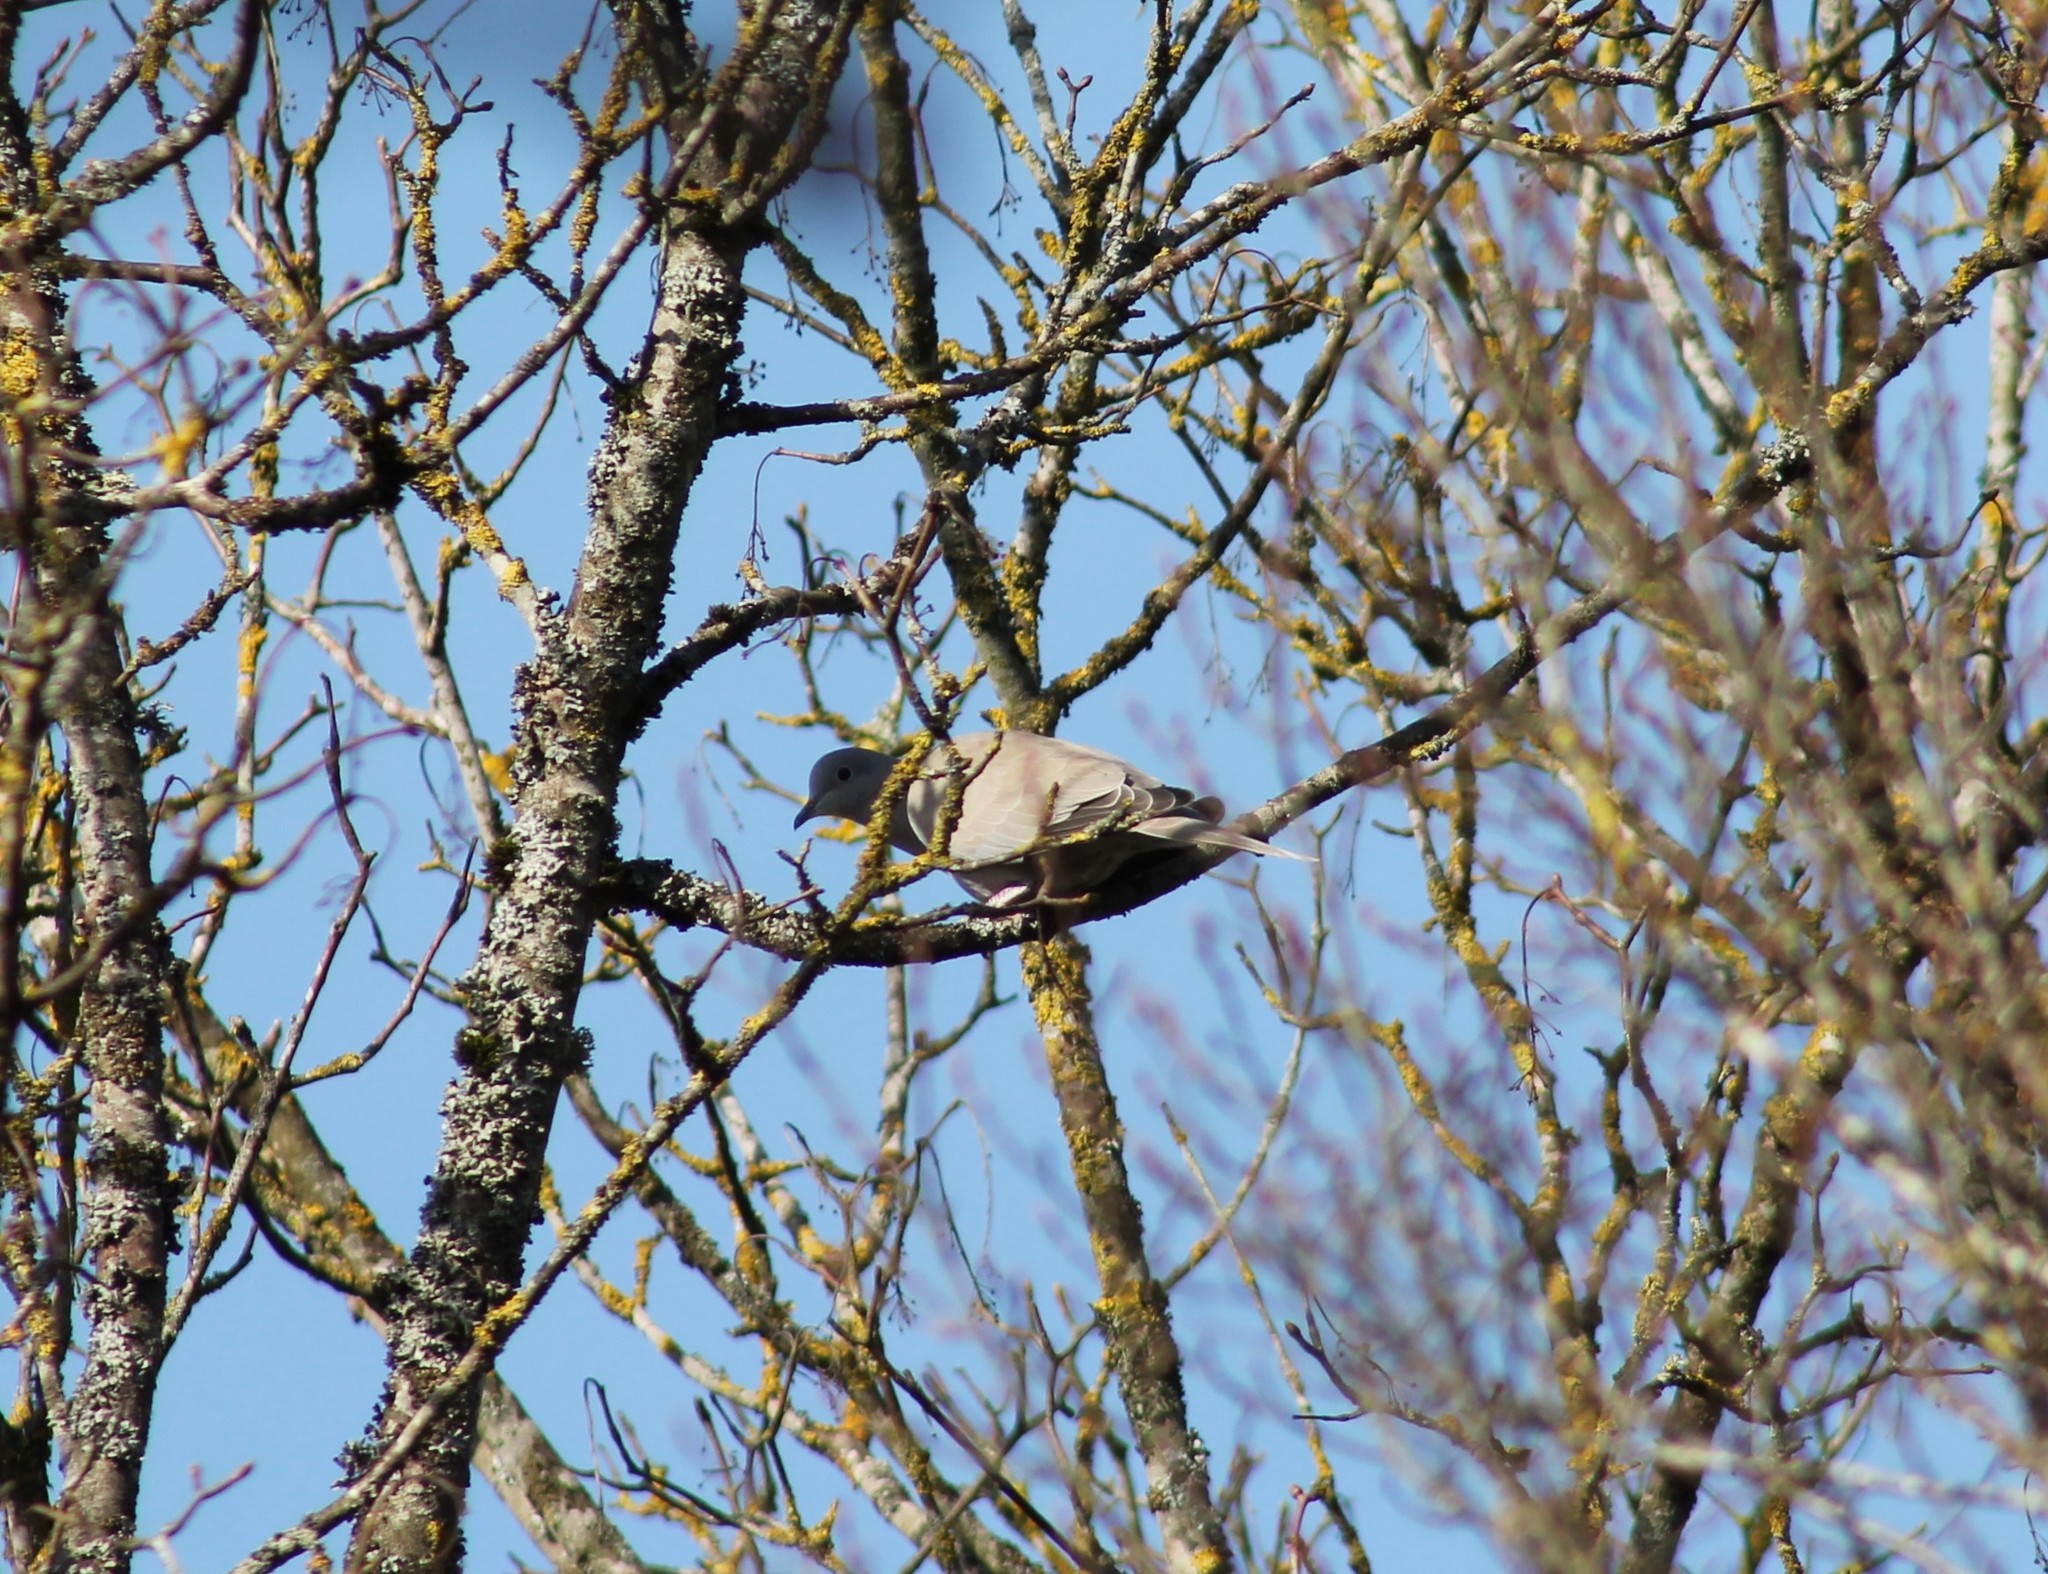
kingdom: Animalia
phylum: Chordata
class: Aves
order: Columbiformes
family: Columbidae
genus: Streptopelia
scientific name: Streptopelia decaocto
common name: Eurasian collared dove
